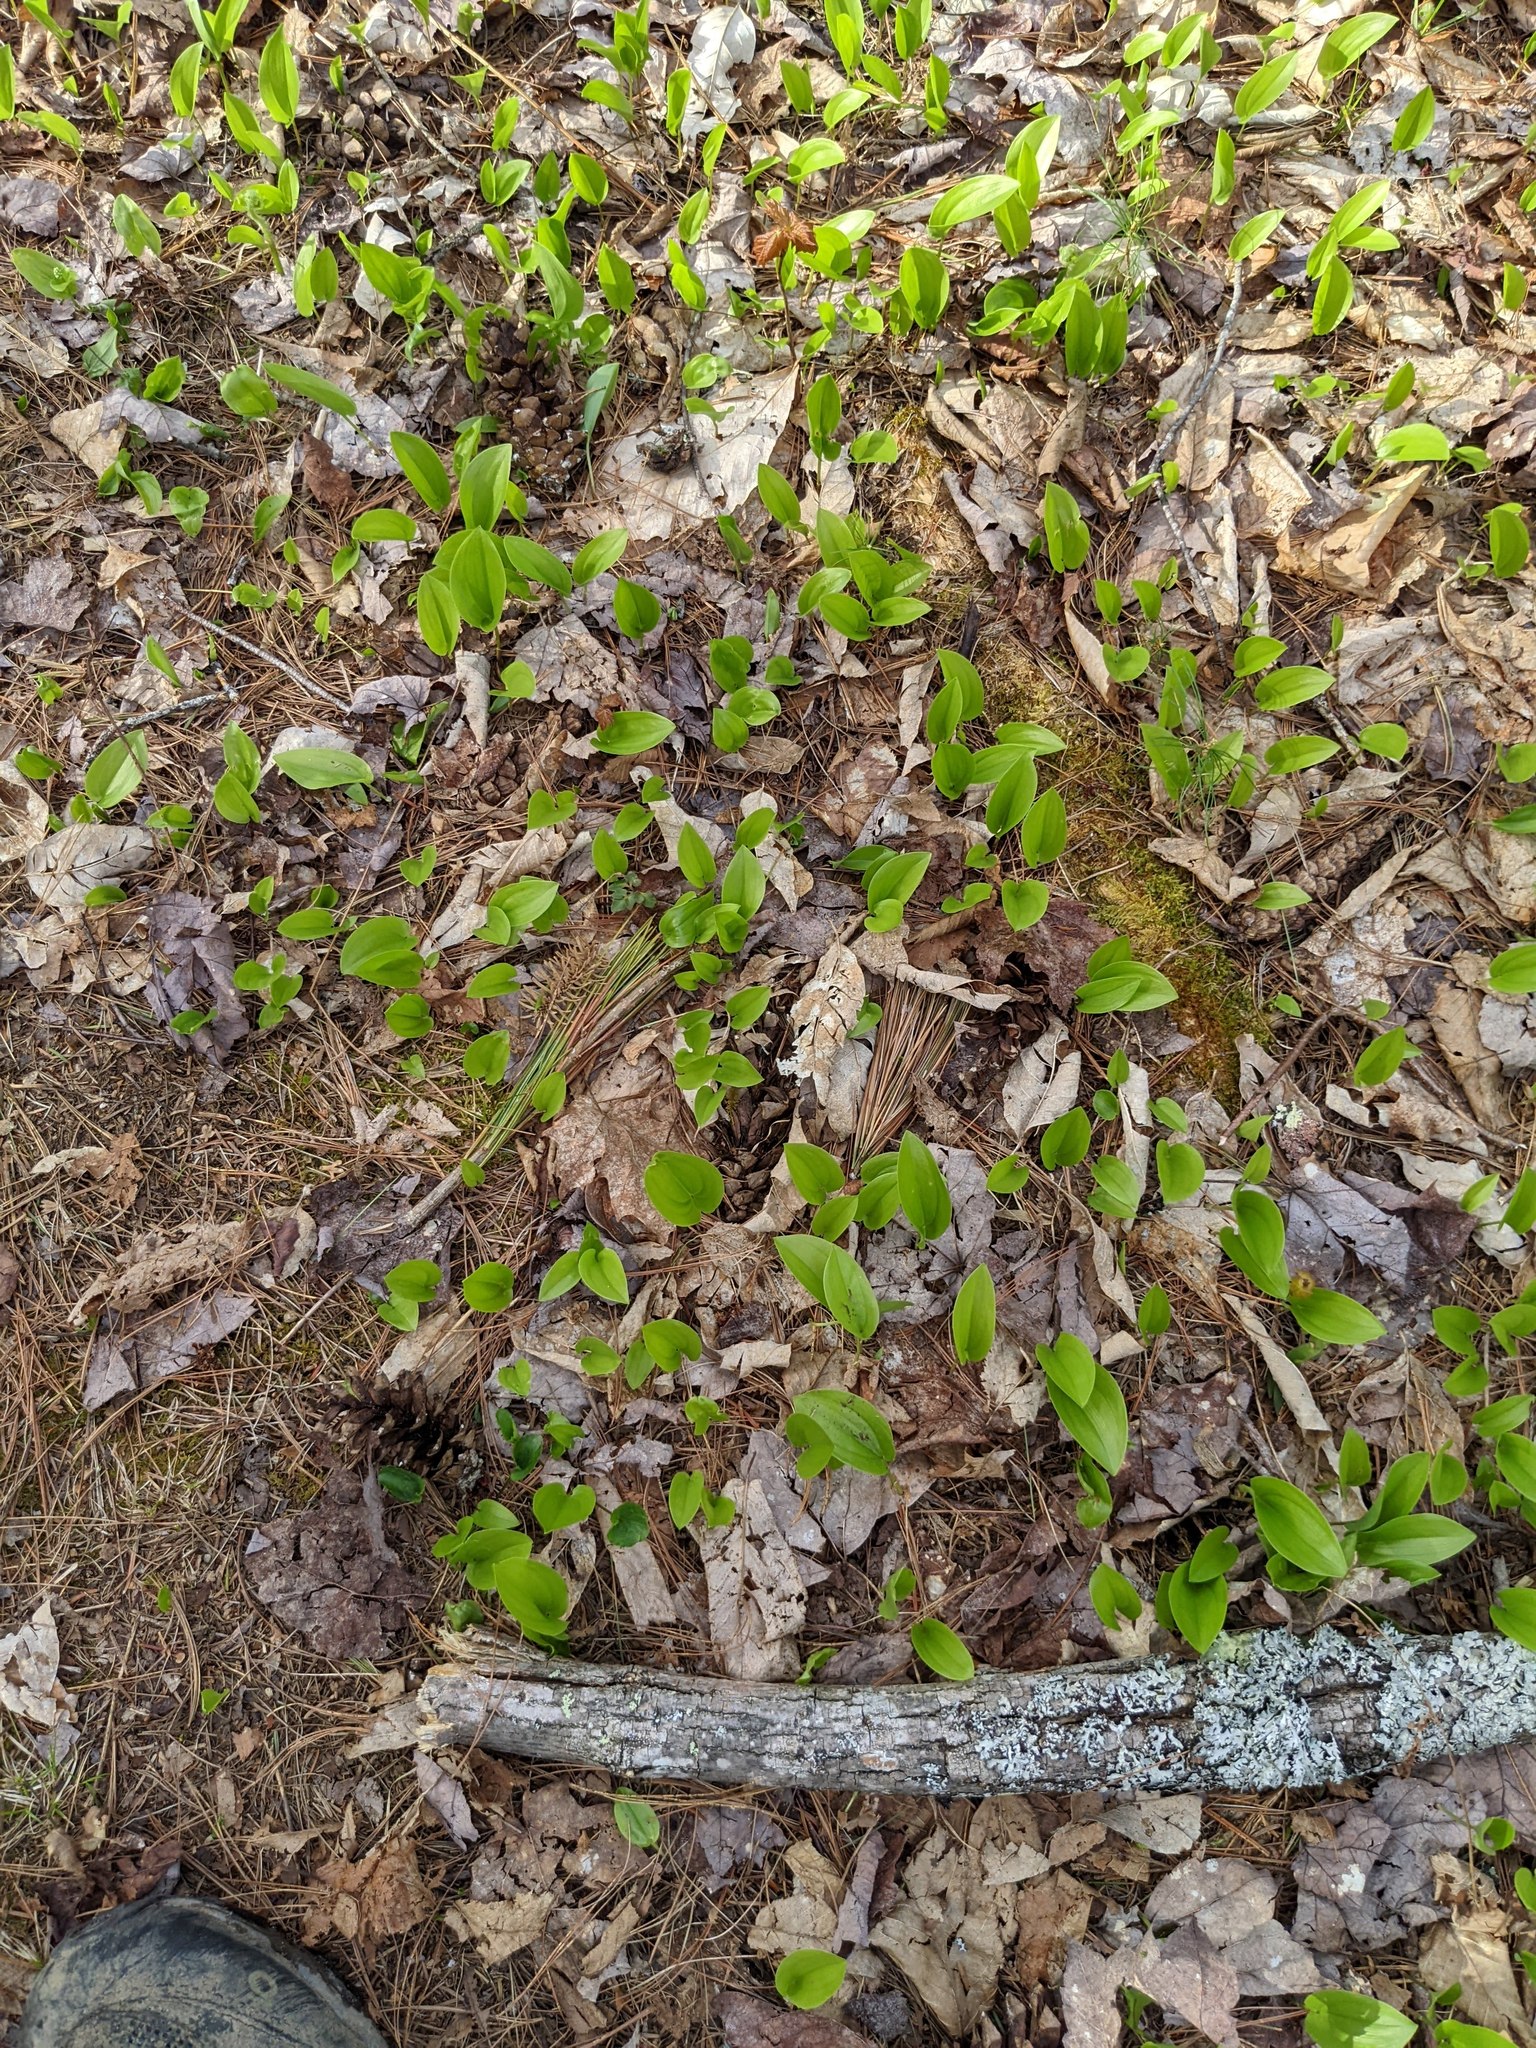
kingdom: Plantae
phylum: Tracheophyta
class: Liliopsida
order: Asparagales
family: Asparagaceae
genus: Maianthemum
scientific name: Maianthemum canadense
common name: False lily-of-the-valley
